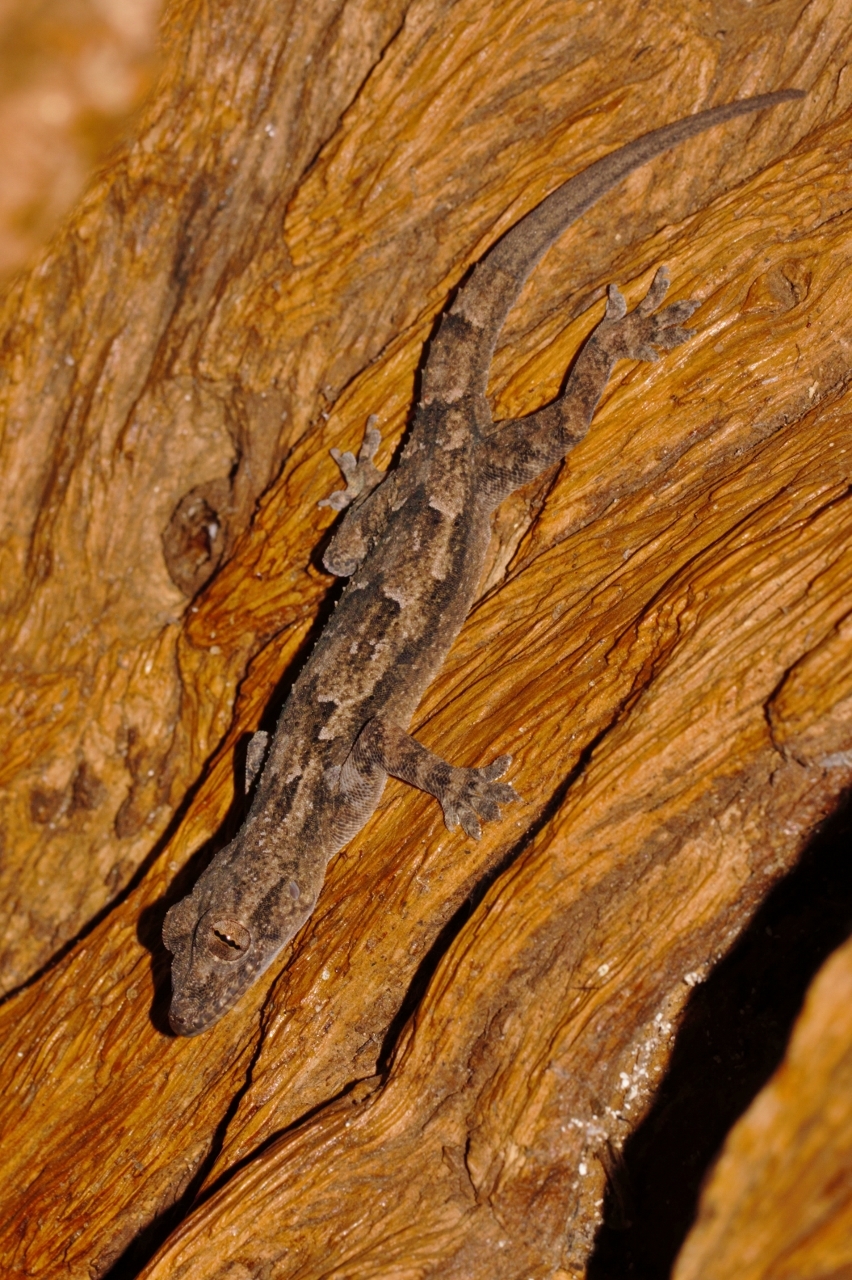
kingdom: Animalia
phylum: Chordata
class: Squamata
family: Gekkonidae
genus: Hemidactylus
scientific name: Hemidactylus platycephalus
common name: Baobab gecko
